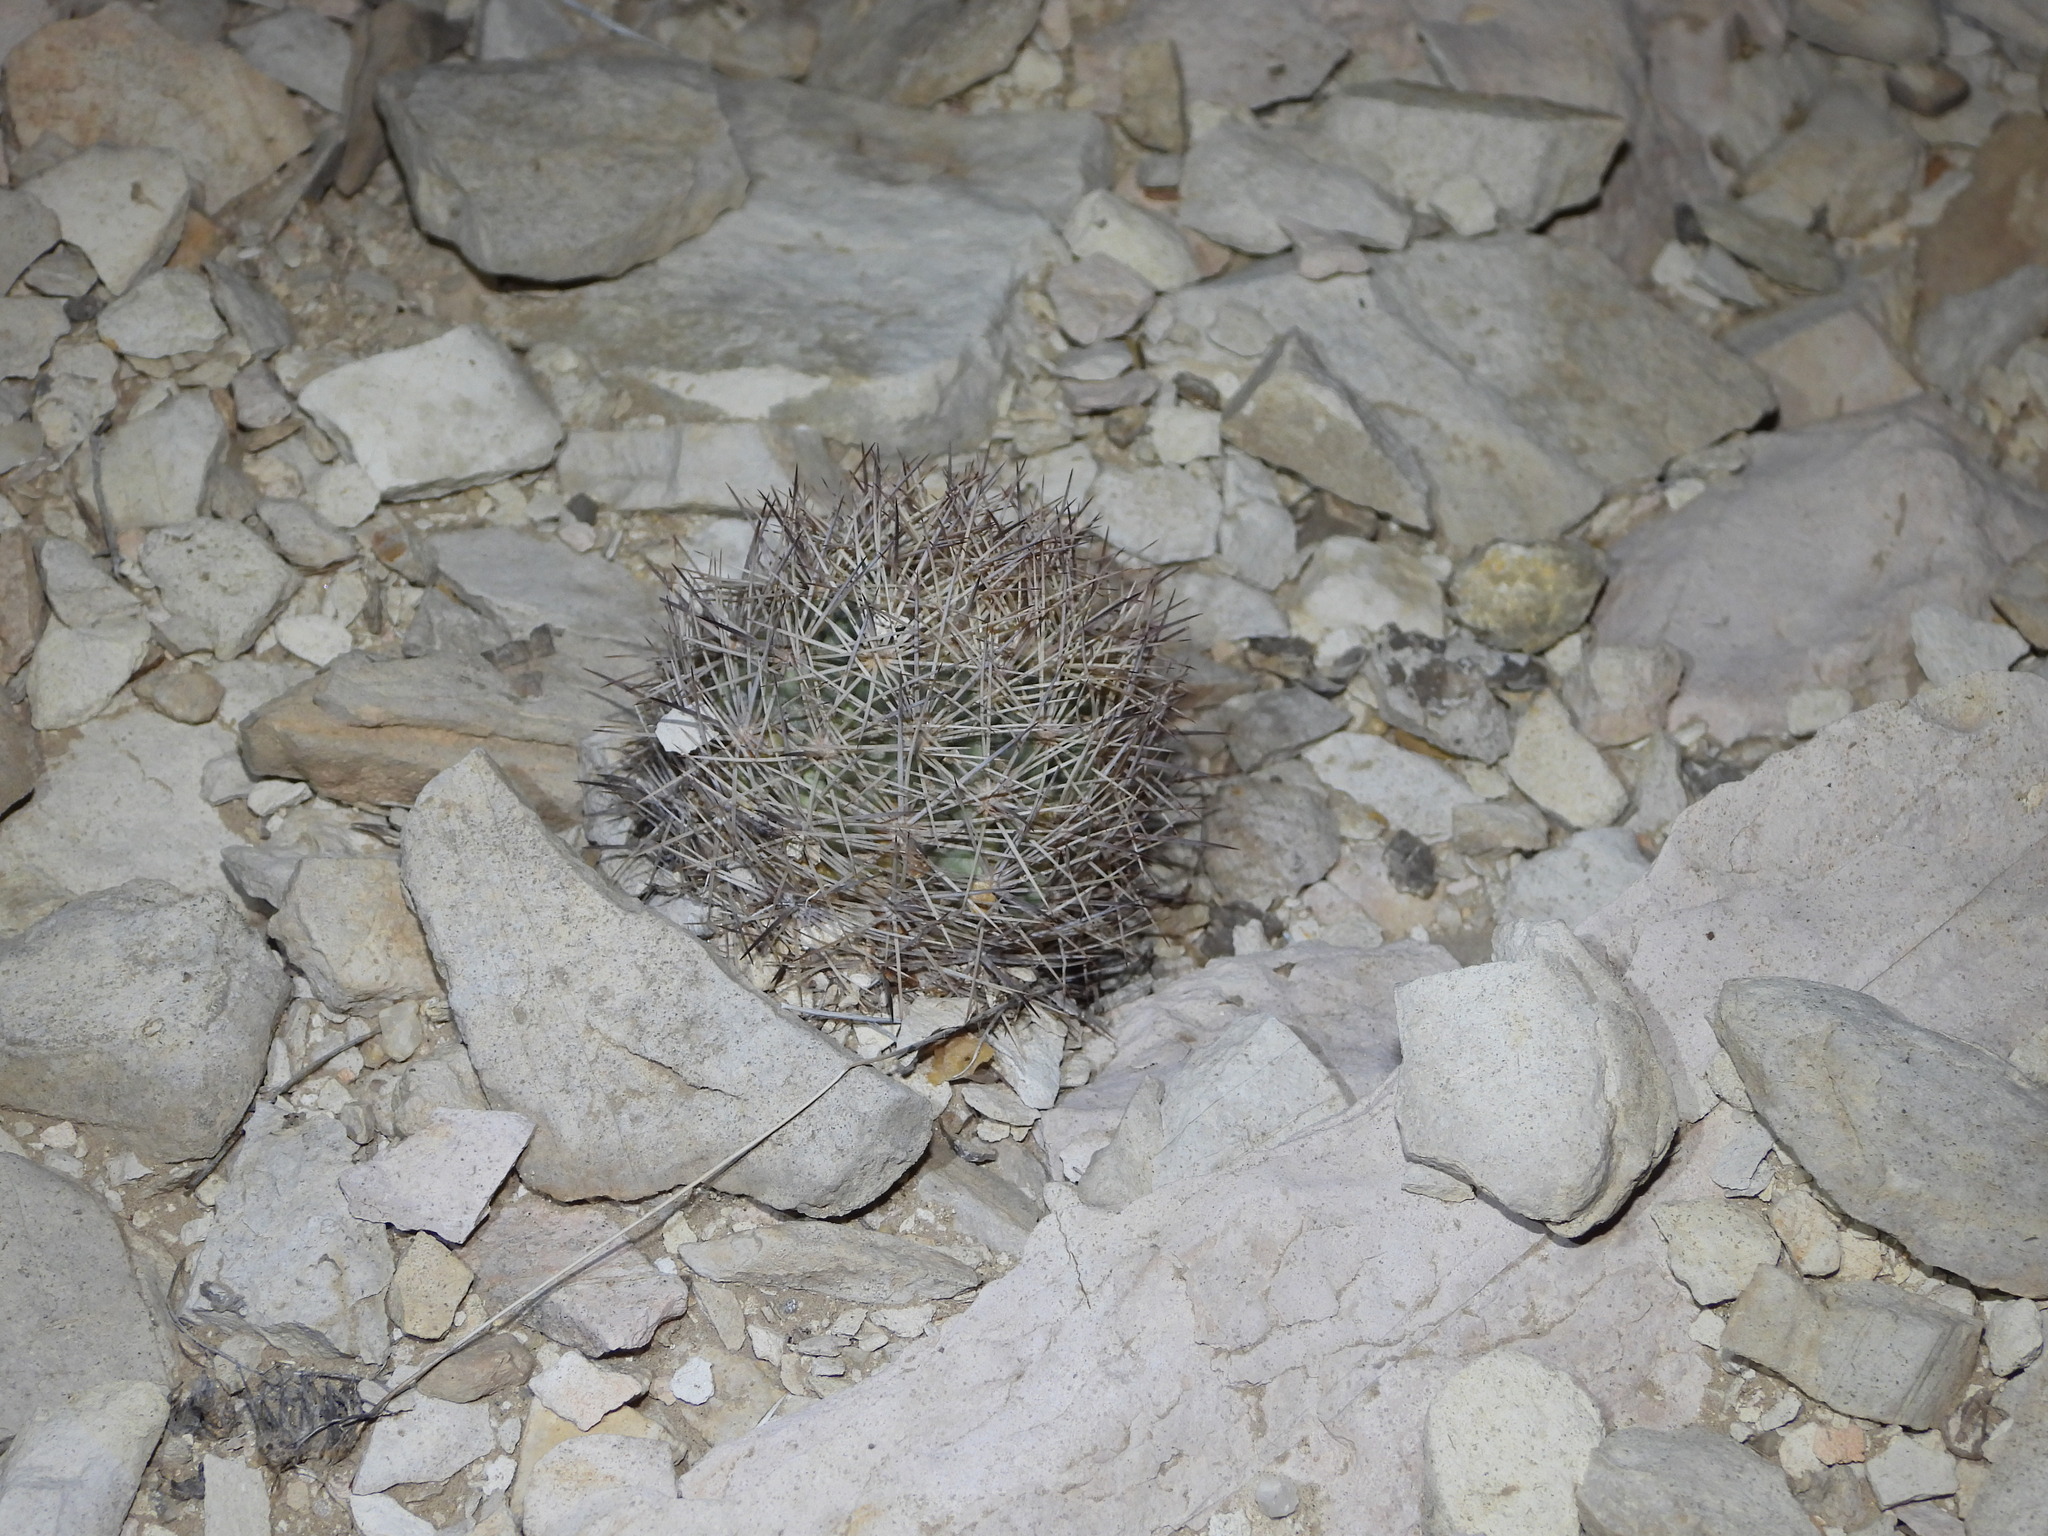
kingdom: Plantae
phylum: Tracheophyta
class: Magnoliopsida
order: Caryophyllales
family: Cactaceae
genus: Sclerocactus
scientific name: Sclerocactus warnockii
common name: Pineapple cactus
